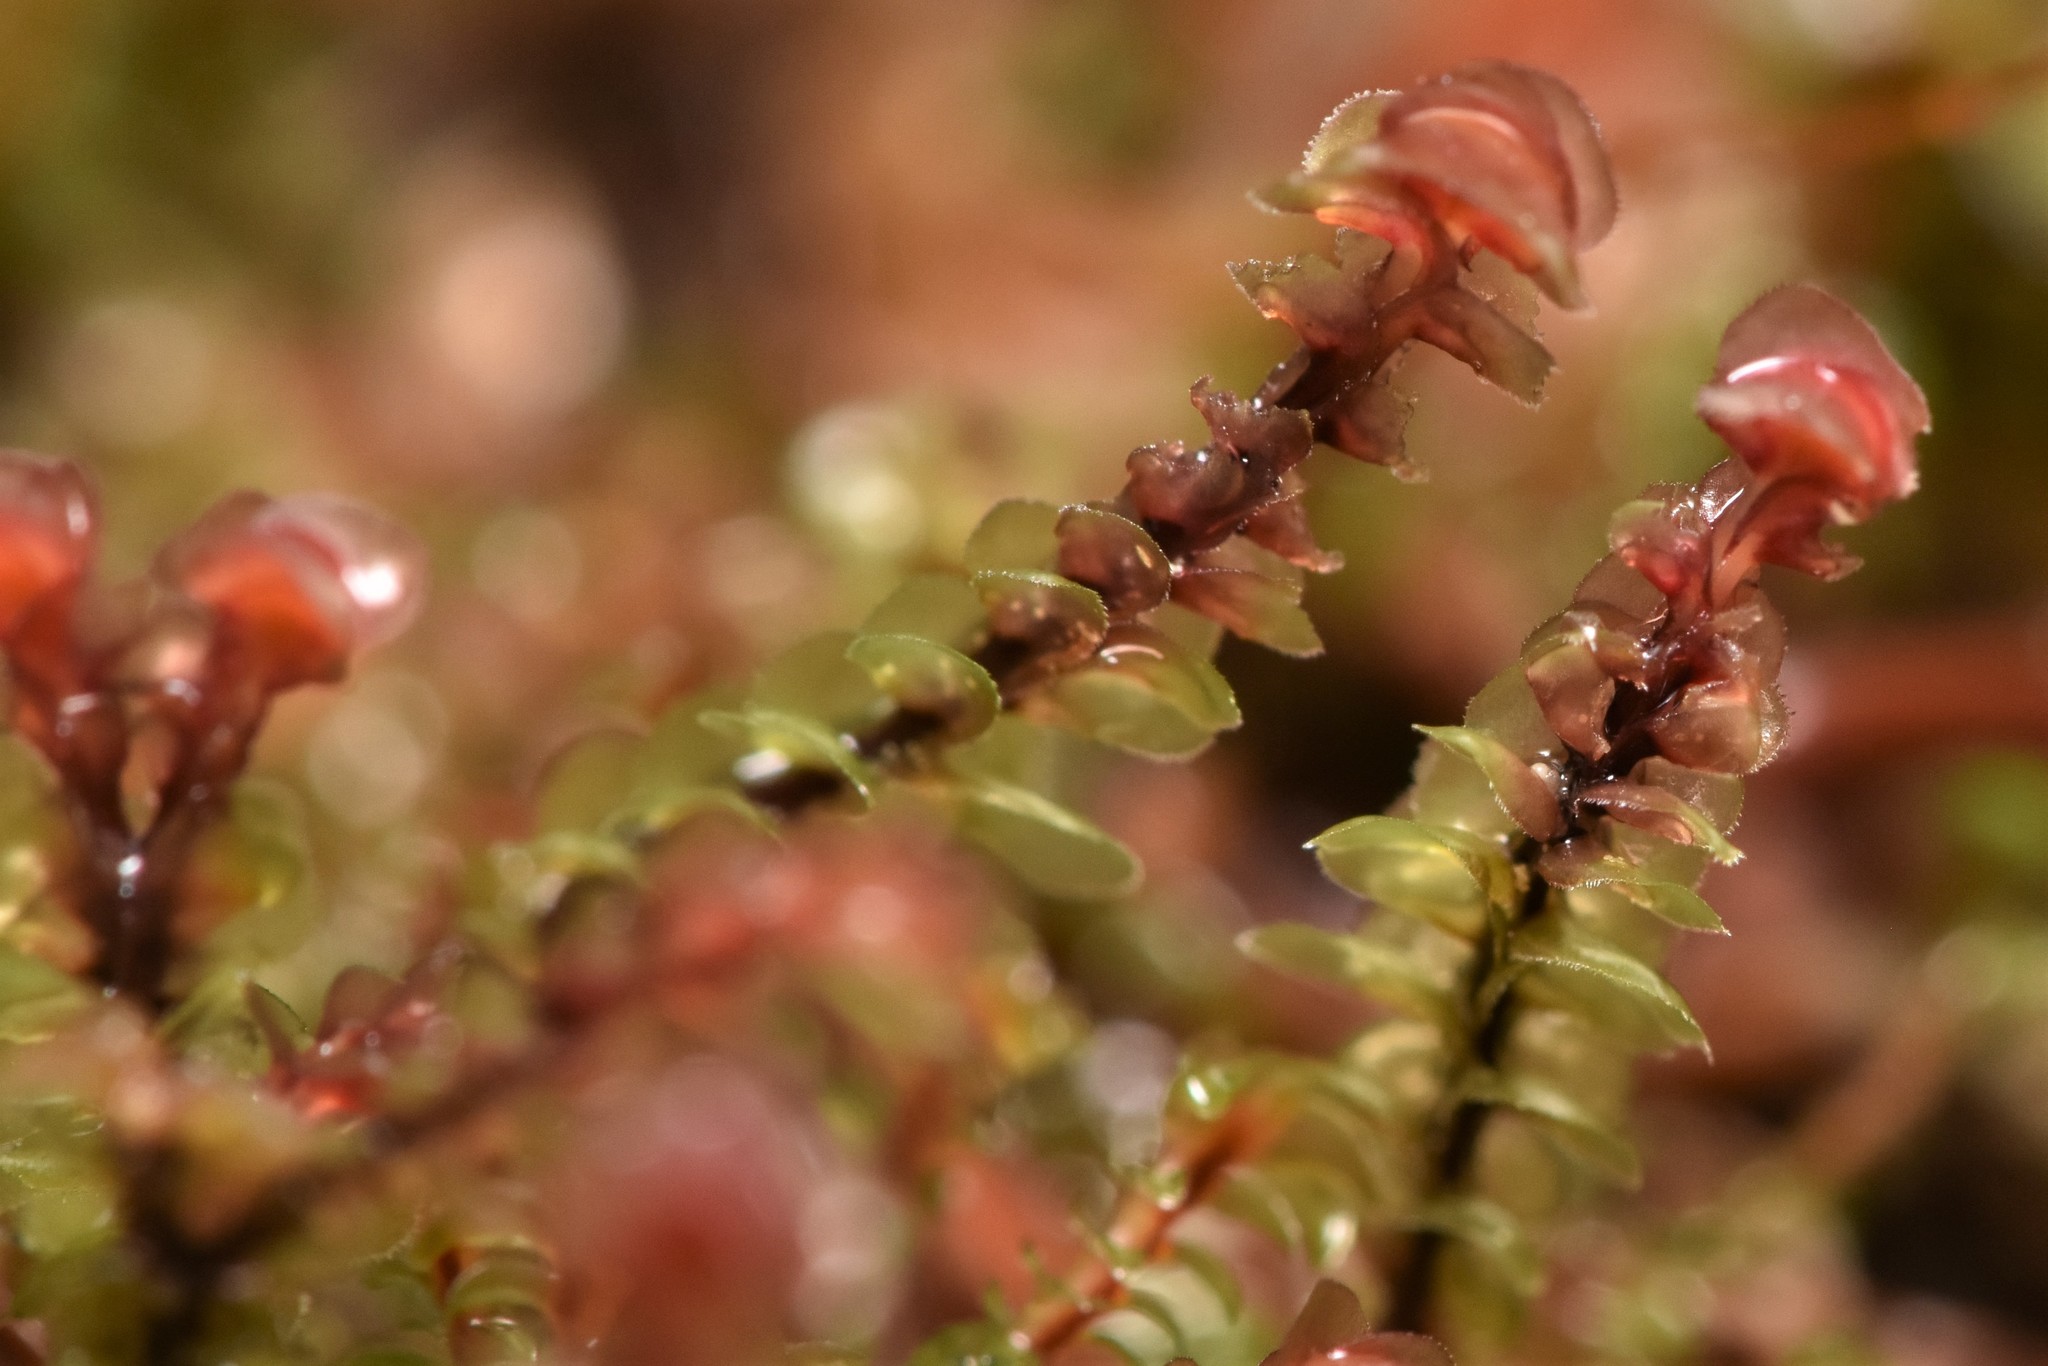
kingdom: Plantae
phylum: Marchantiophyta
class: Jungermanniopsida
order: Jungermanniales
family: Scapaniaceae
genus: Scapania
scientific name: Scapania americana
